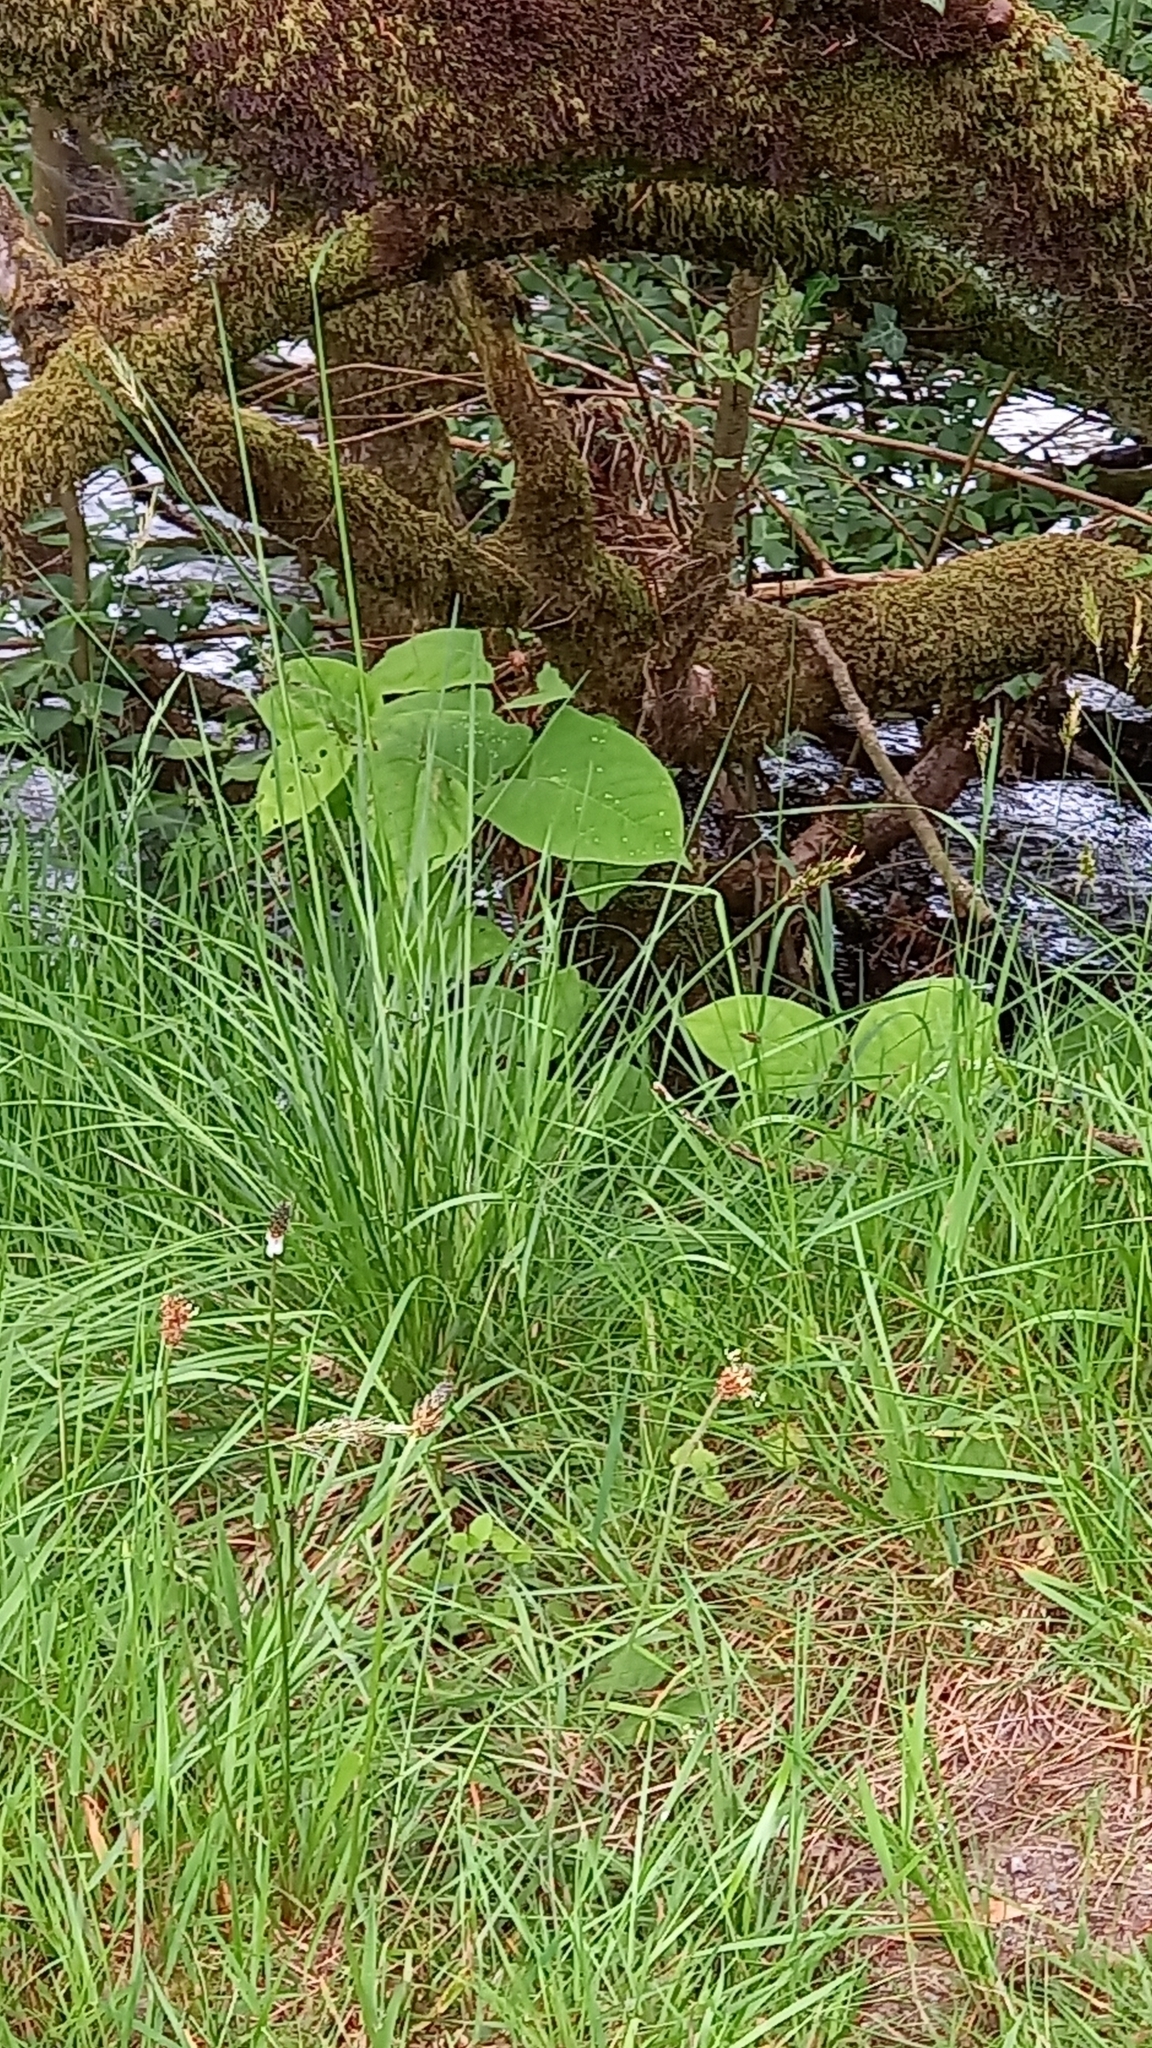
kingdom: Plantae
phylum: Tracheophyta
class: Magnoliopsida
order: Caryophyllales
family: Polygonaceae
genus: Reynoutria
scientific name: Reynoutria japonica
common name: Japanese knotweed
